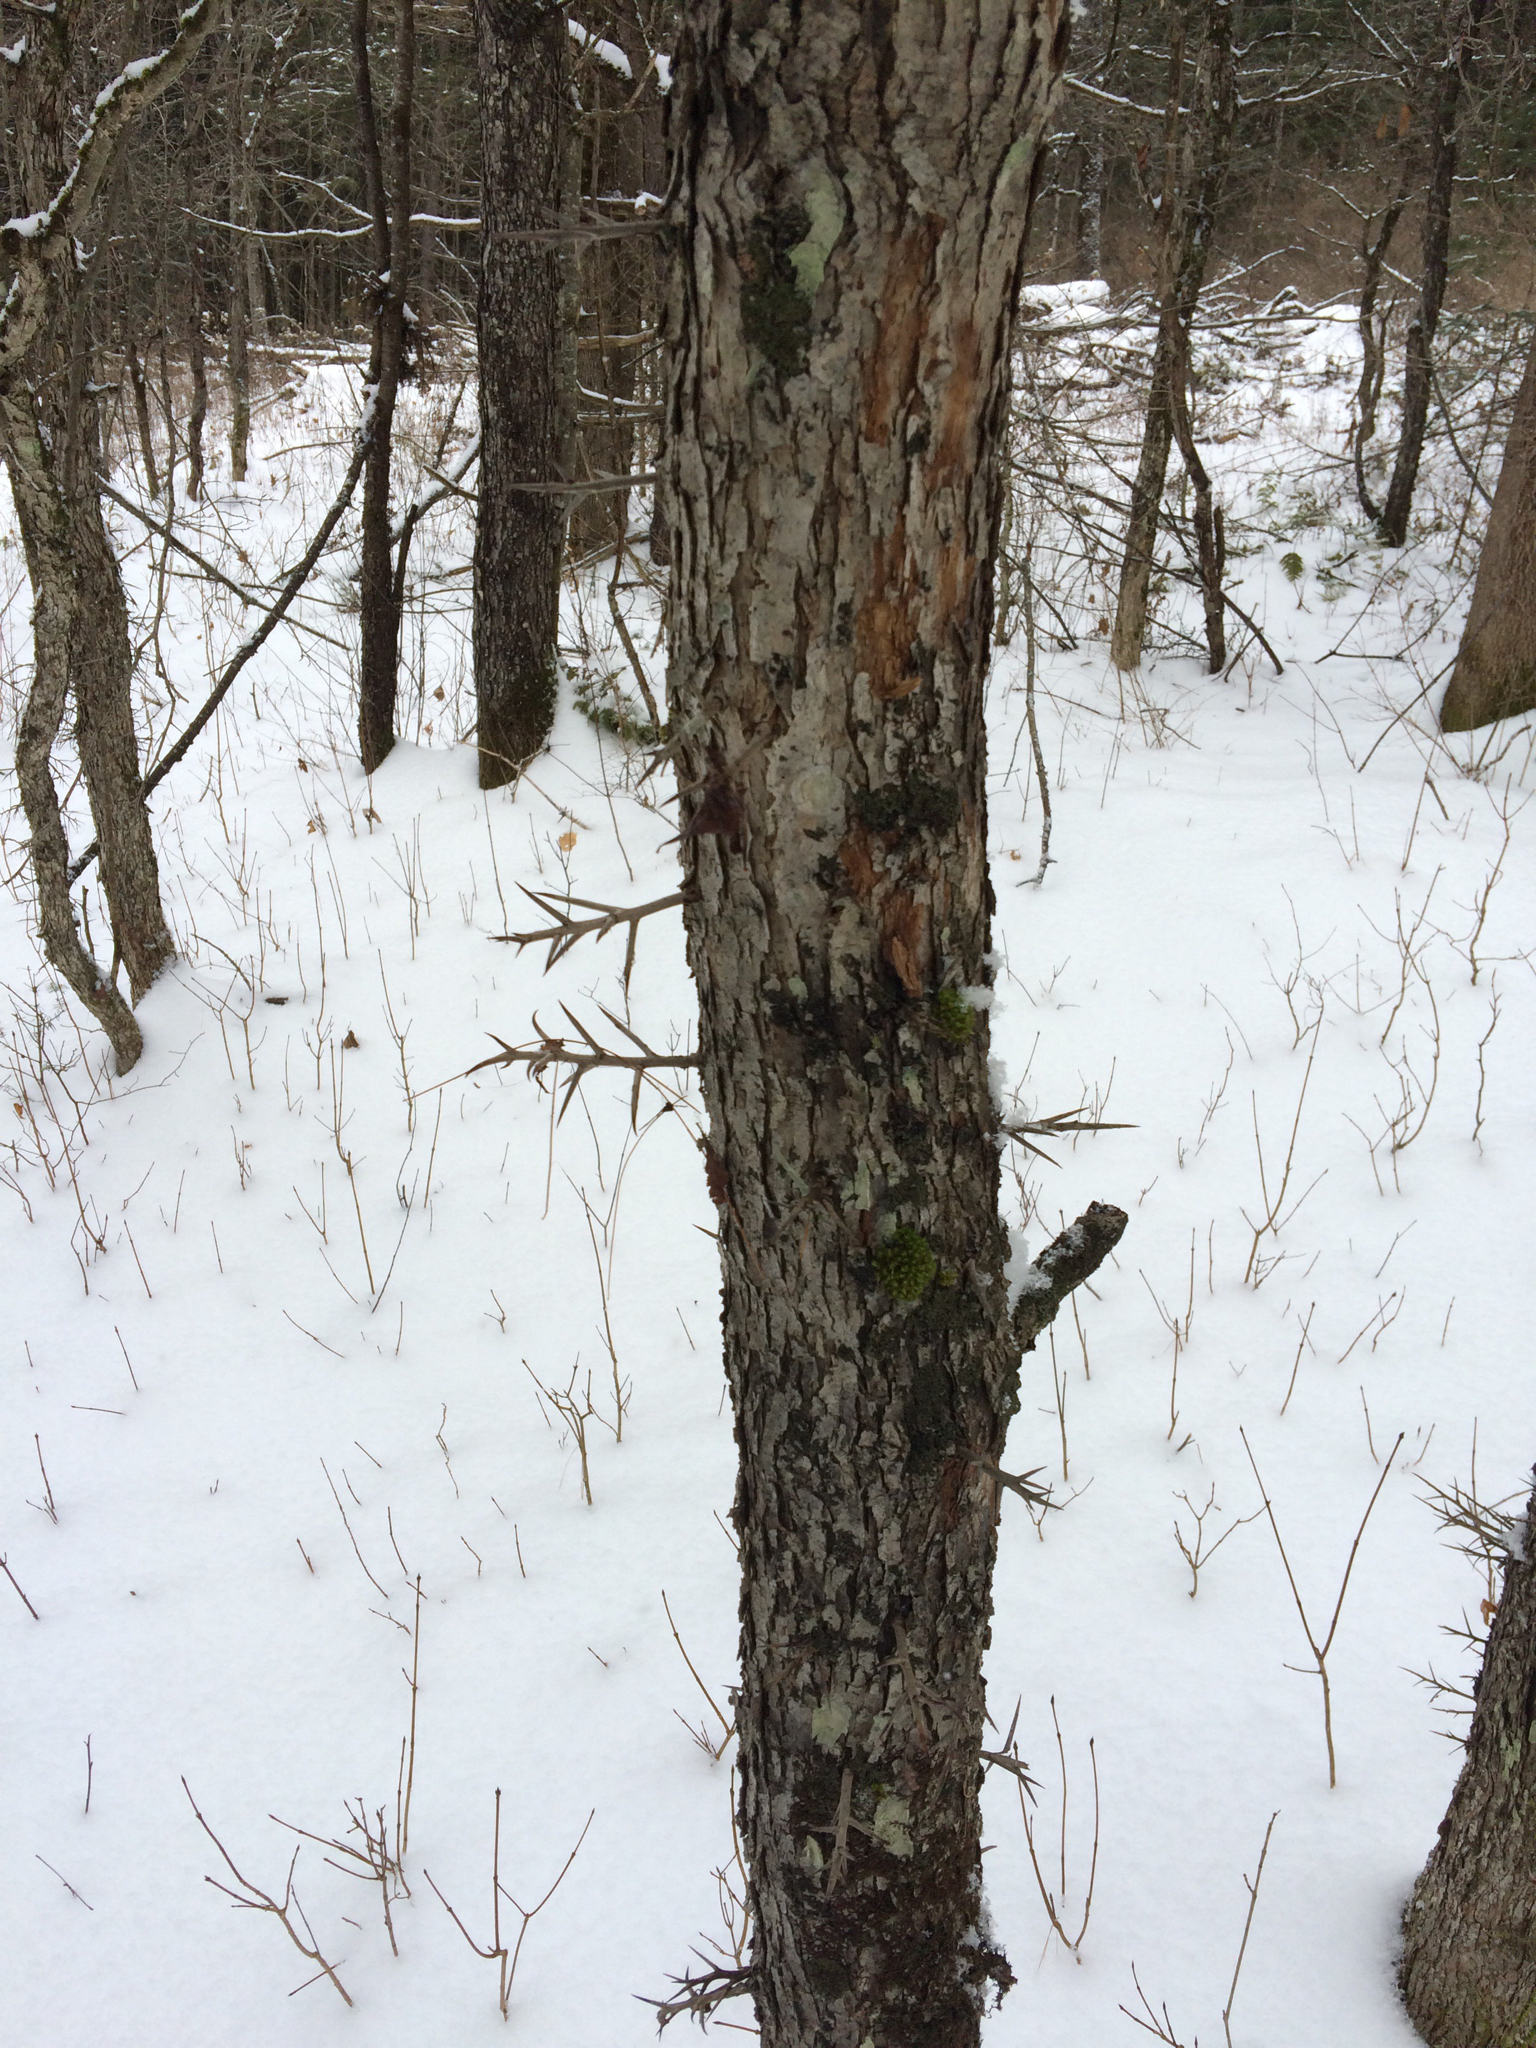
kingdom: Plantae
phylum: Tracheophyta
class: Magnoliopsida
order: Rosales
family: Rosaceae
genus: Crataegus
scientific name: Crataegus
